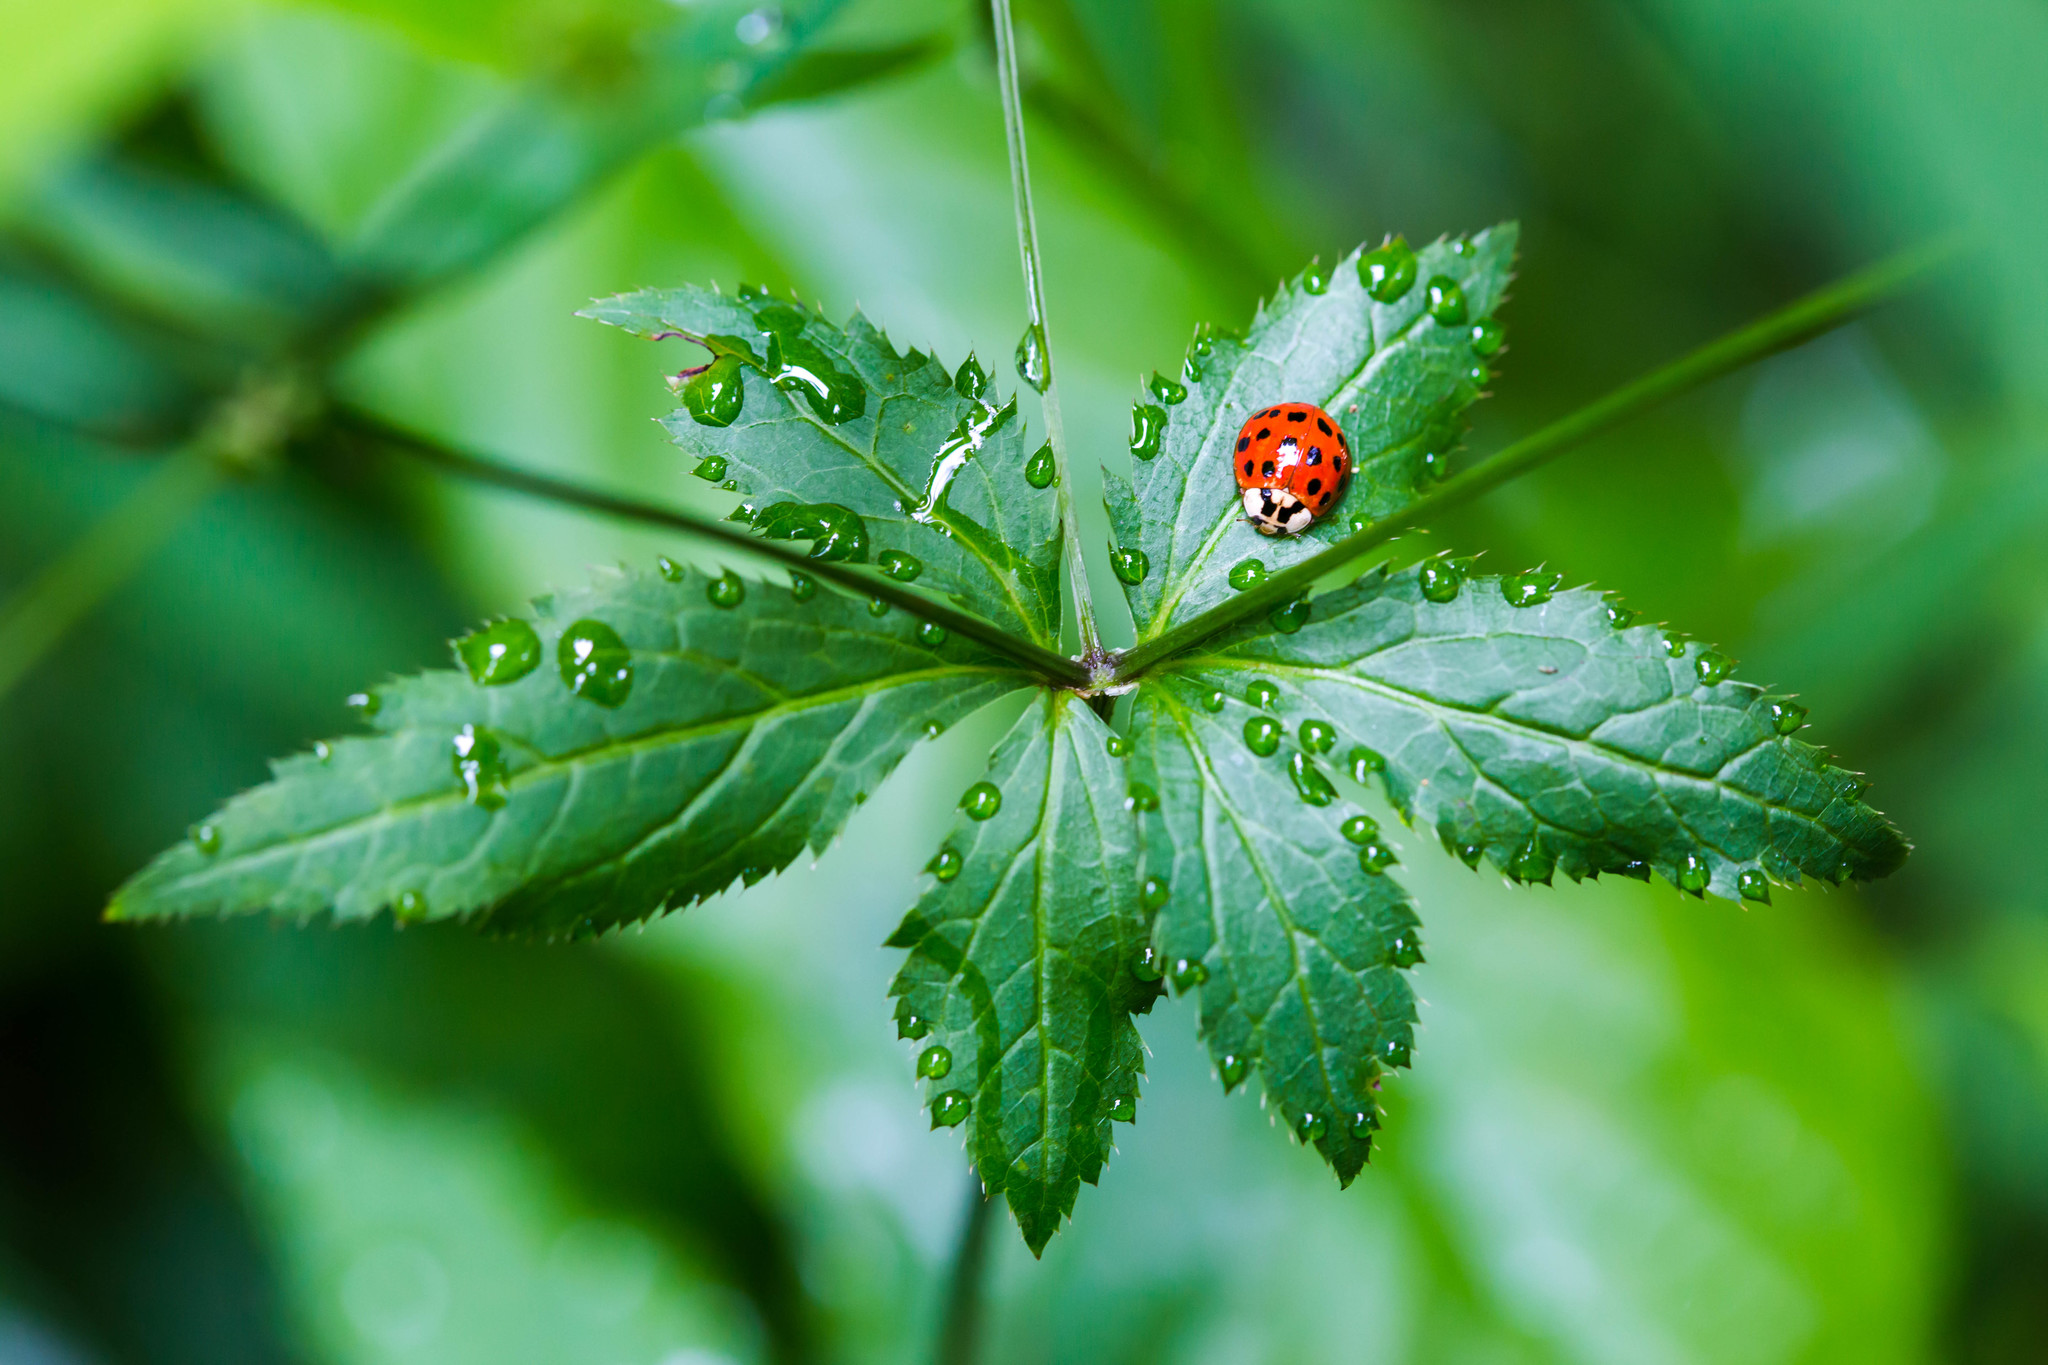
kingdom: Animalia
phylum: Arthropoda
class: Insecta
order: Coleoptera
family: Coccinellidae
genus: Harmonia
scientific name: Harmonia axyridis
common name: Harlequin ladybird
